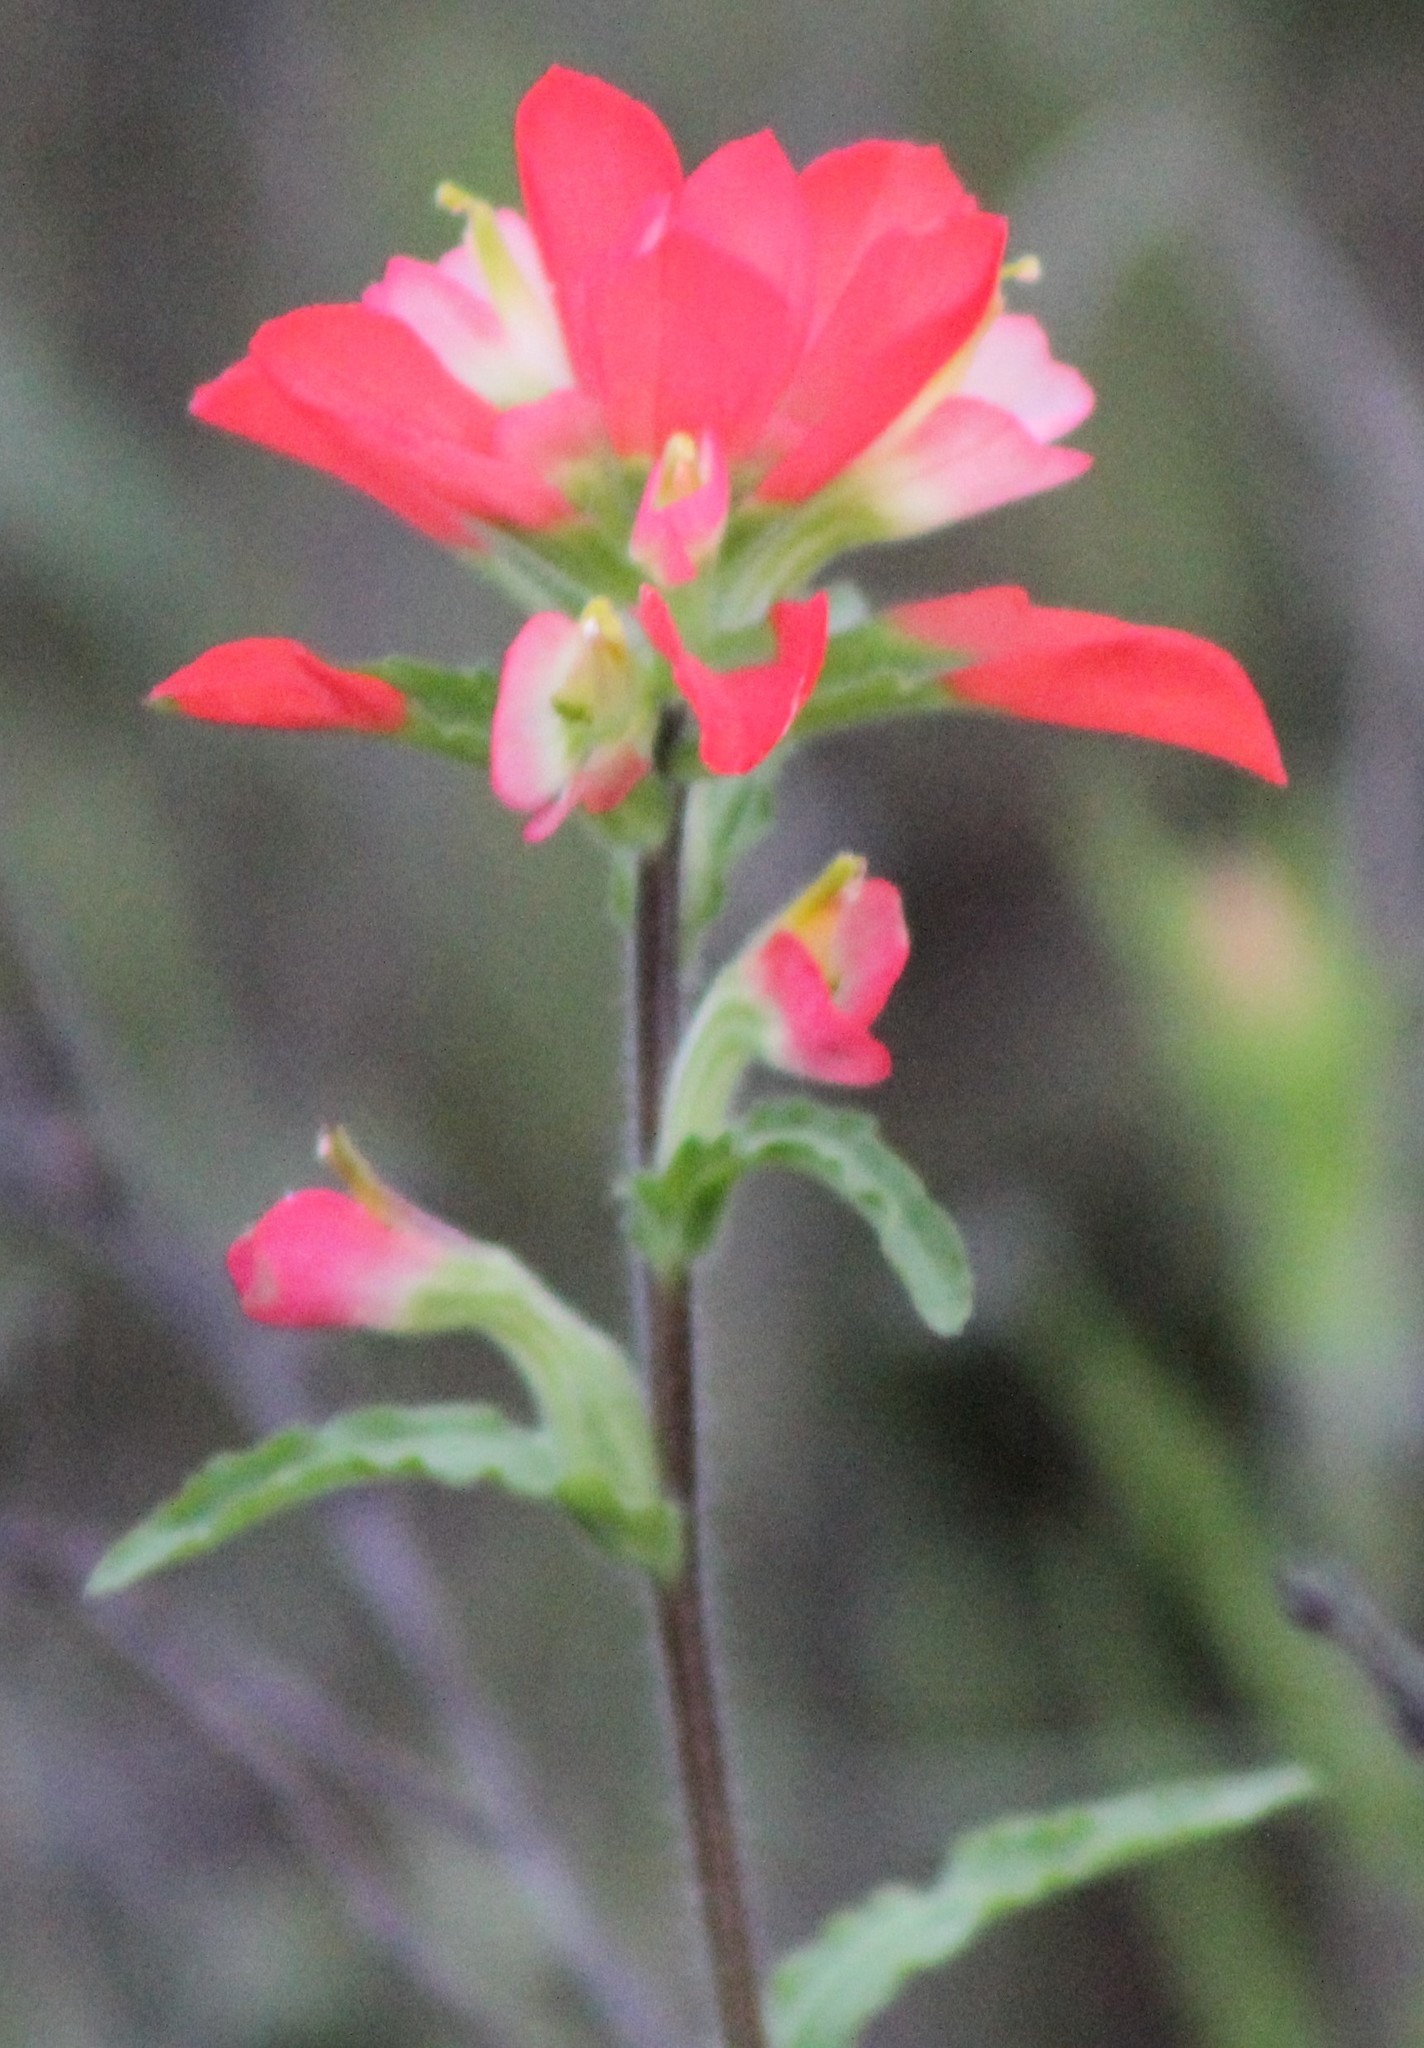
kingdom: Plantae
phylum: Tracheophyta
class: Magnoliopsida
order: Lamiales
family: Orobanchaceae
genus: Castilleja
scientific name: Castilleja indivisa
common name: Texas paintbrush
